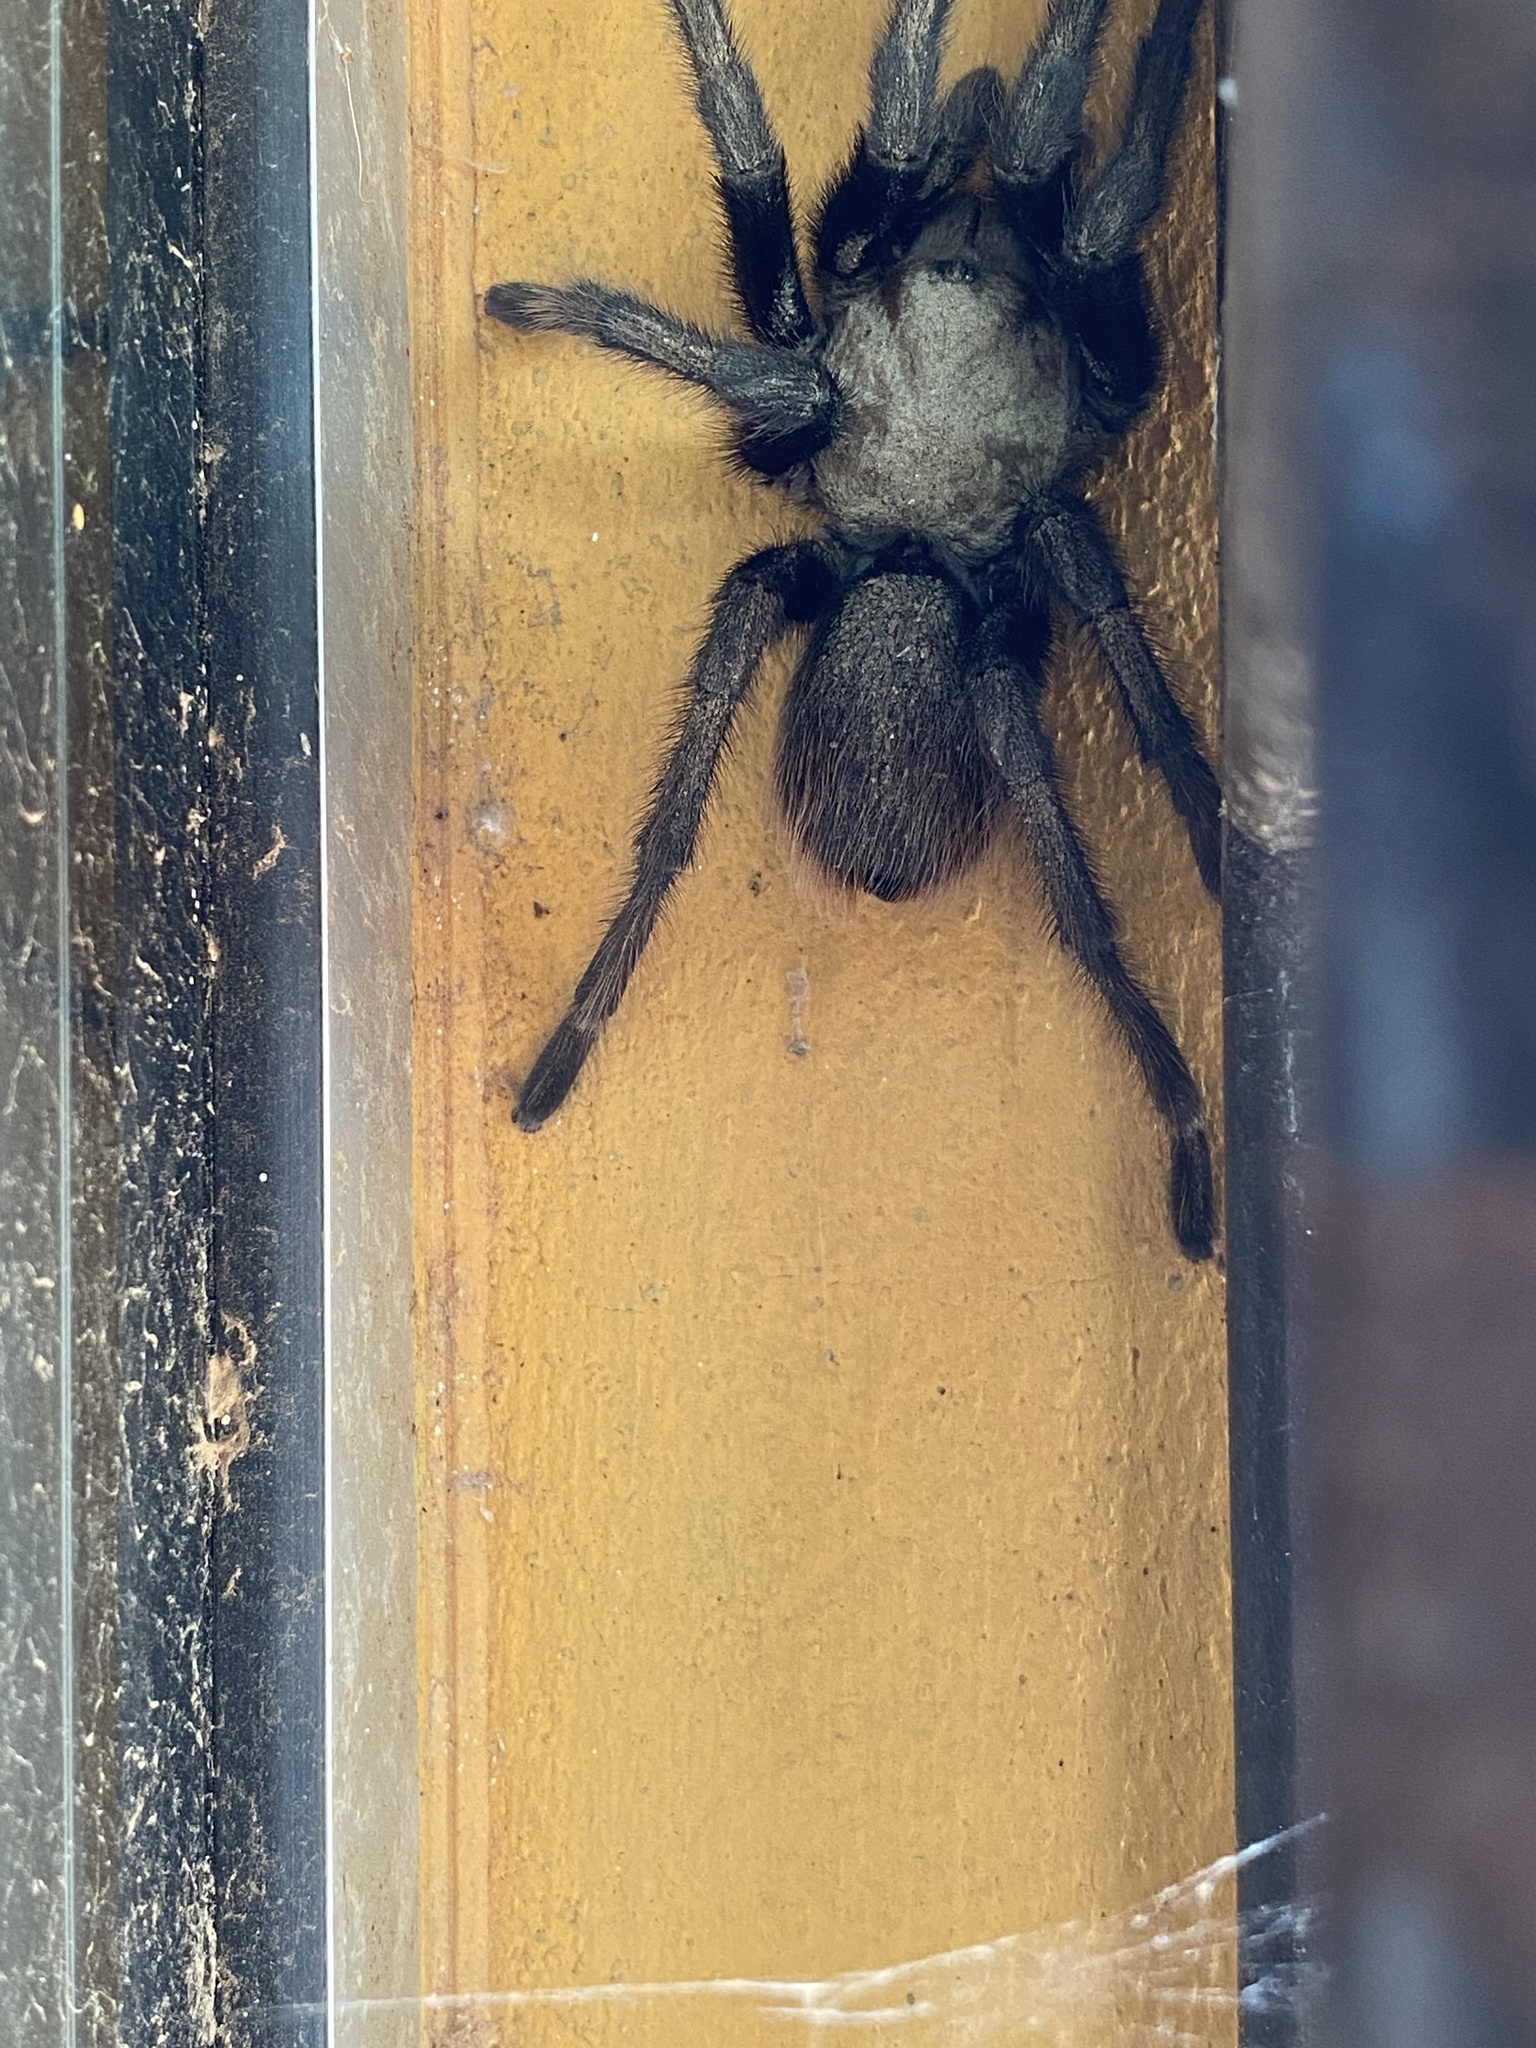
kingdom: Animalia
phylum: Arthropoda
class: Arachnida
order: Araneae
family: Theraphosidae
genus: Aphonopelma
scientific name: Aphonopelma chalcodes
